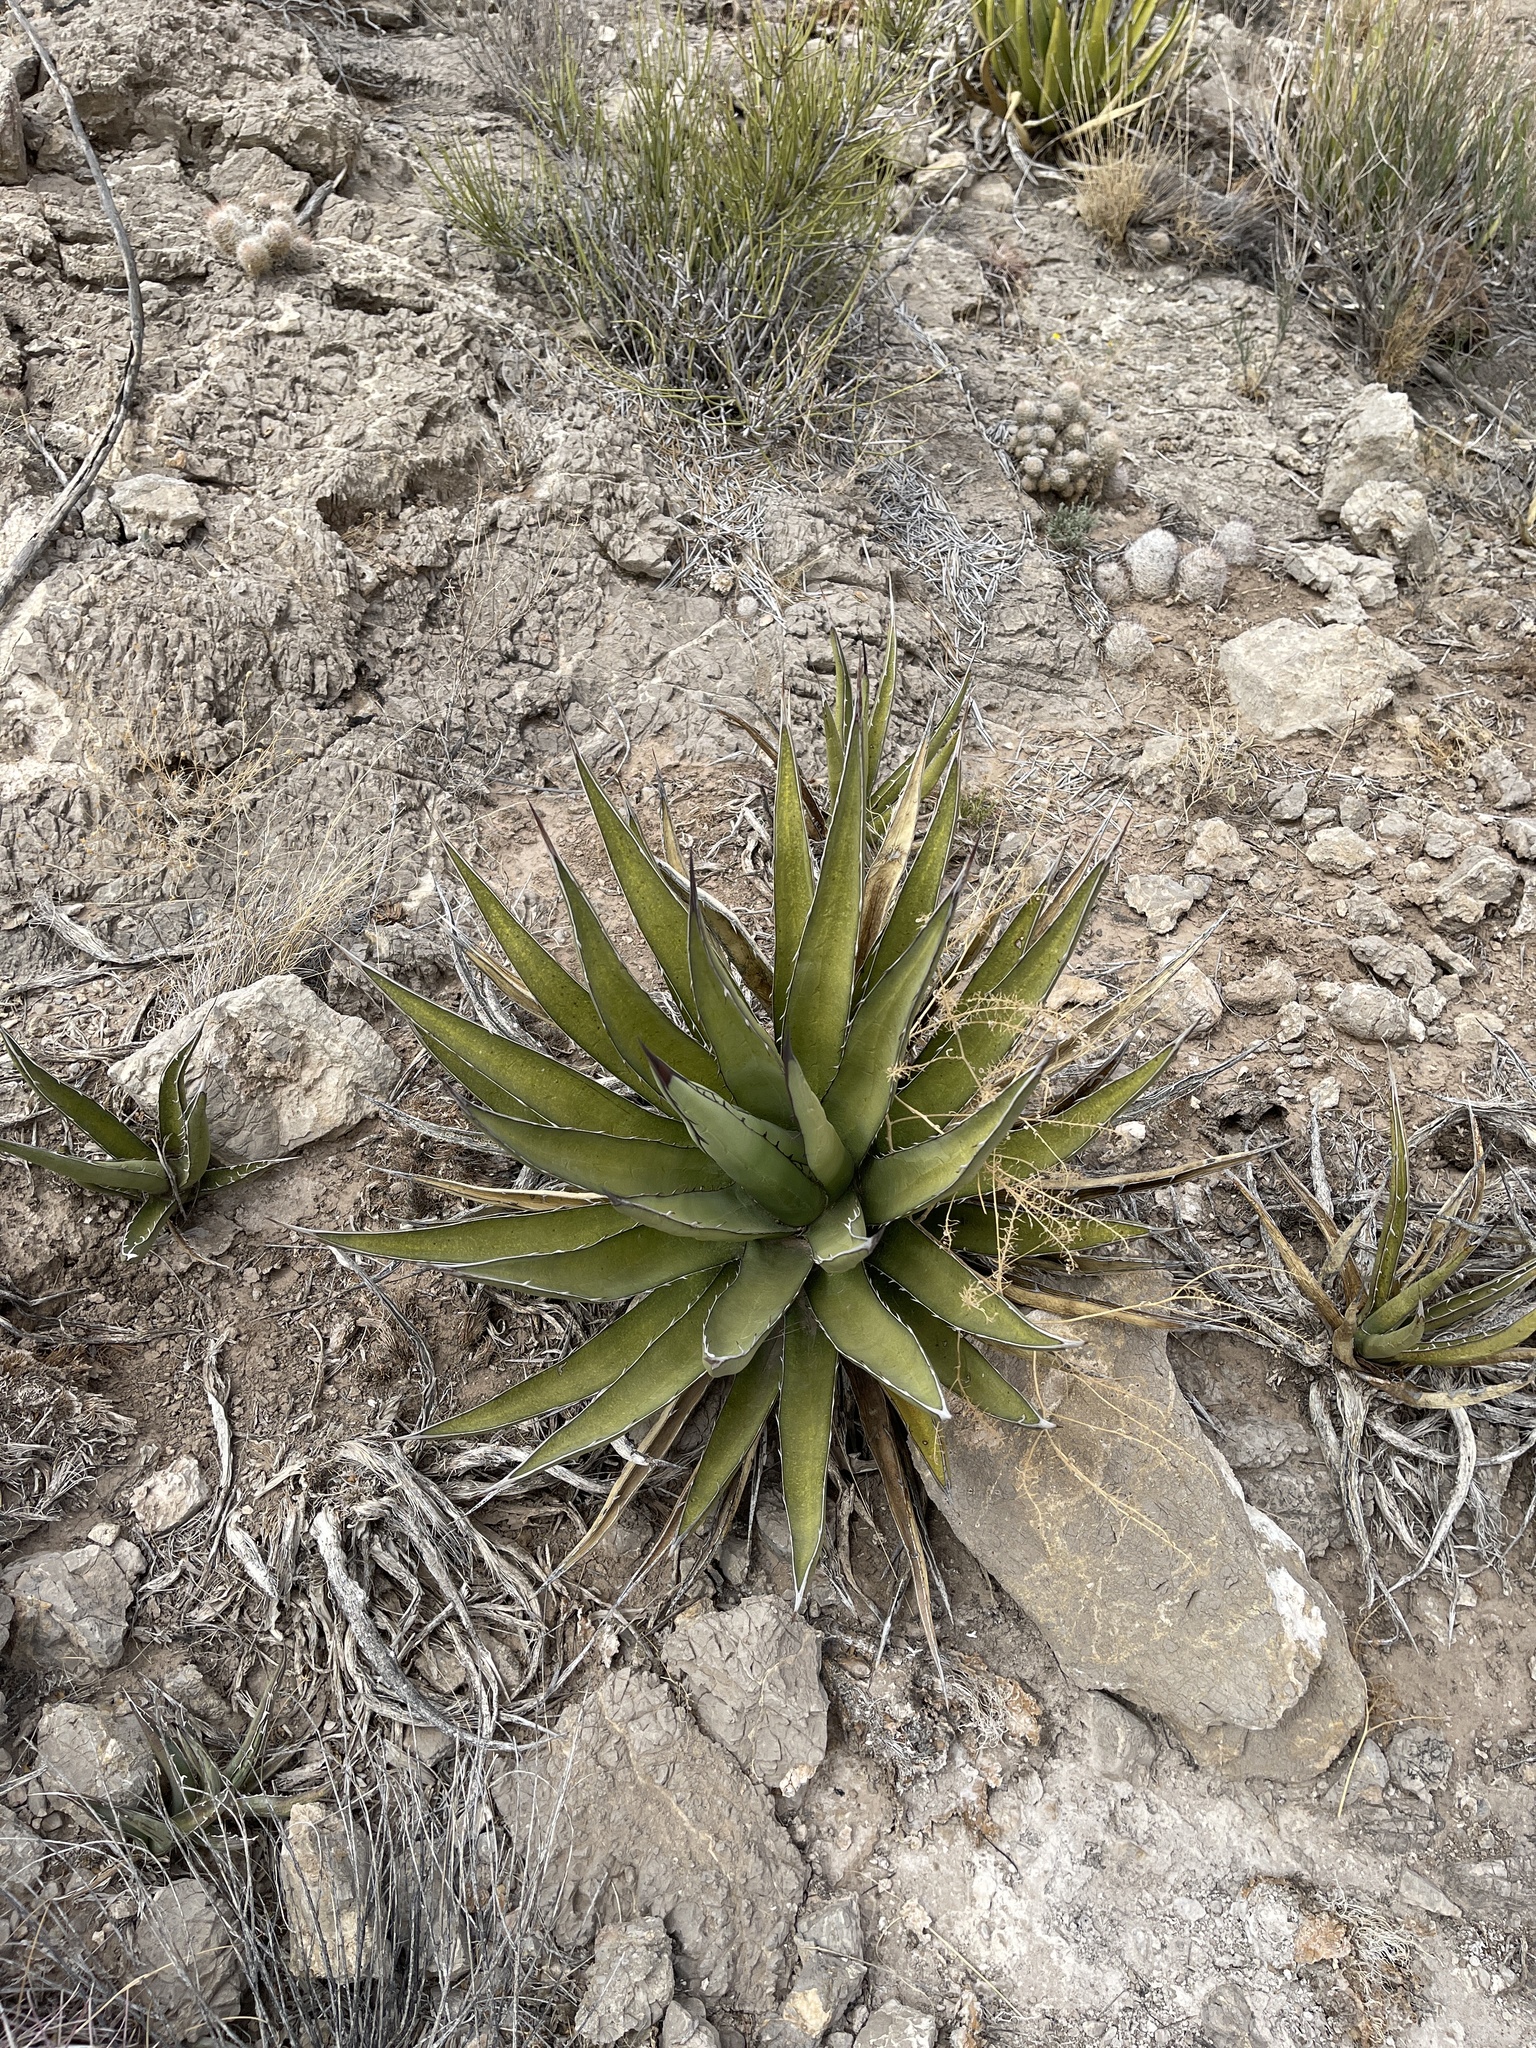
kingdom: Plantae
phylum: Tracheophyta
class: Liliopsida
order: Asparagales
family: Asparagaceae
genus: Agave
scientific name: Agave lechuguilla
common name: Lecheguilla agave
